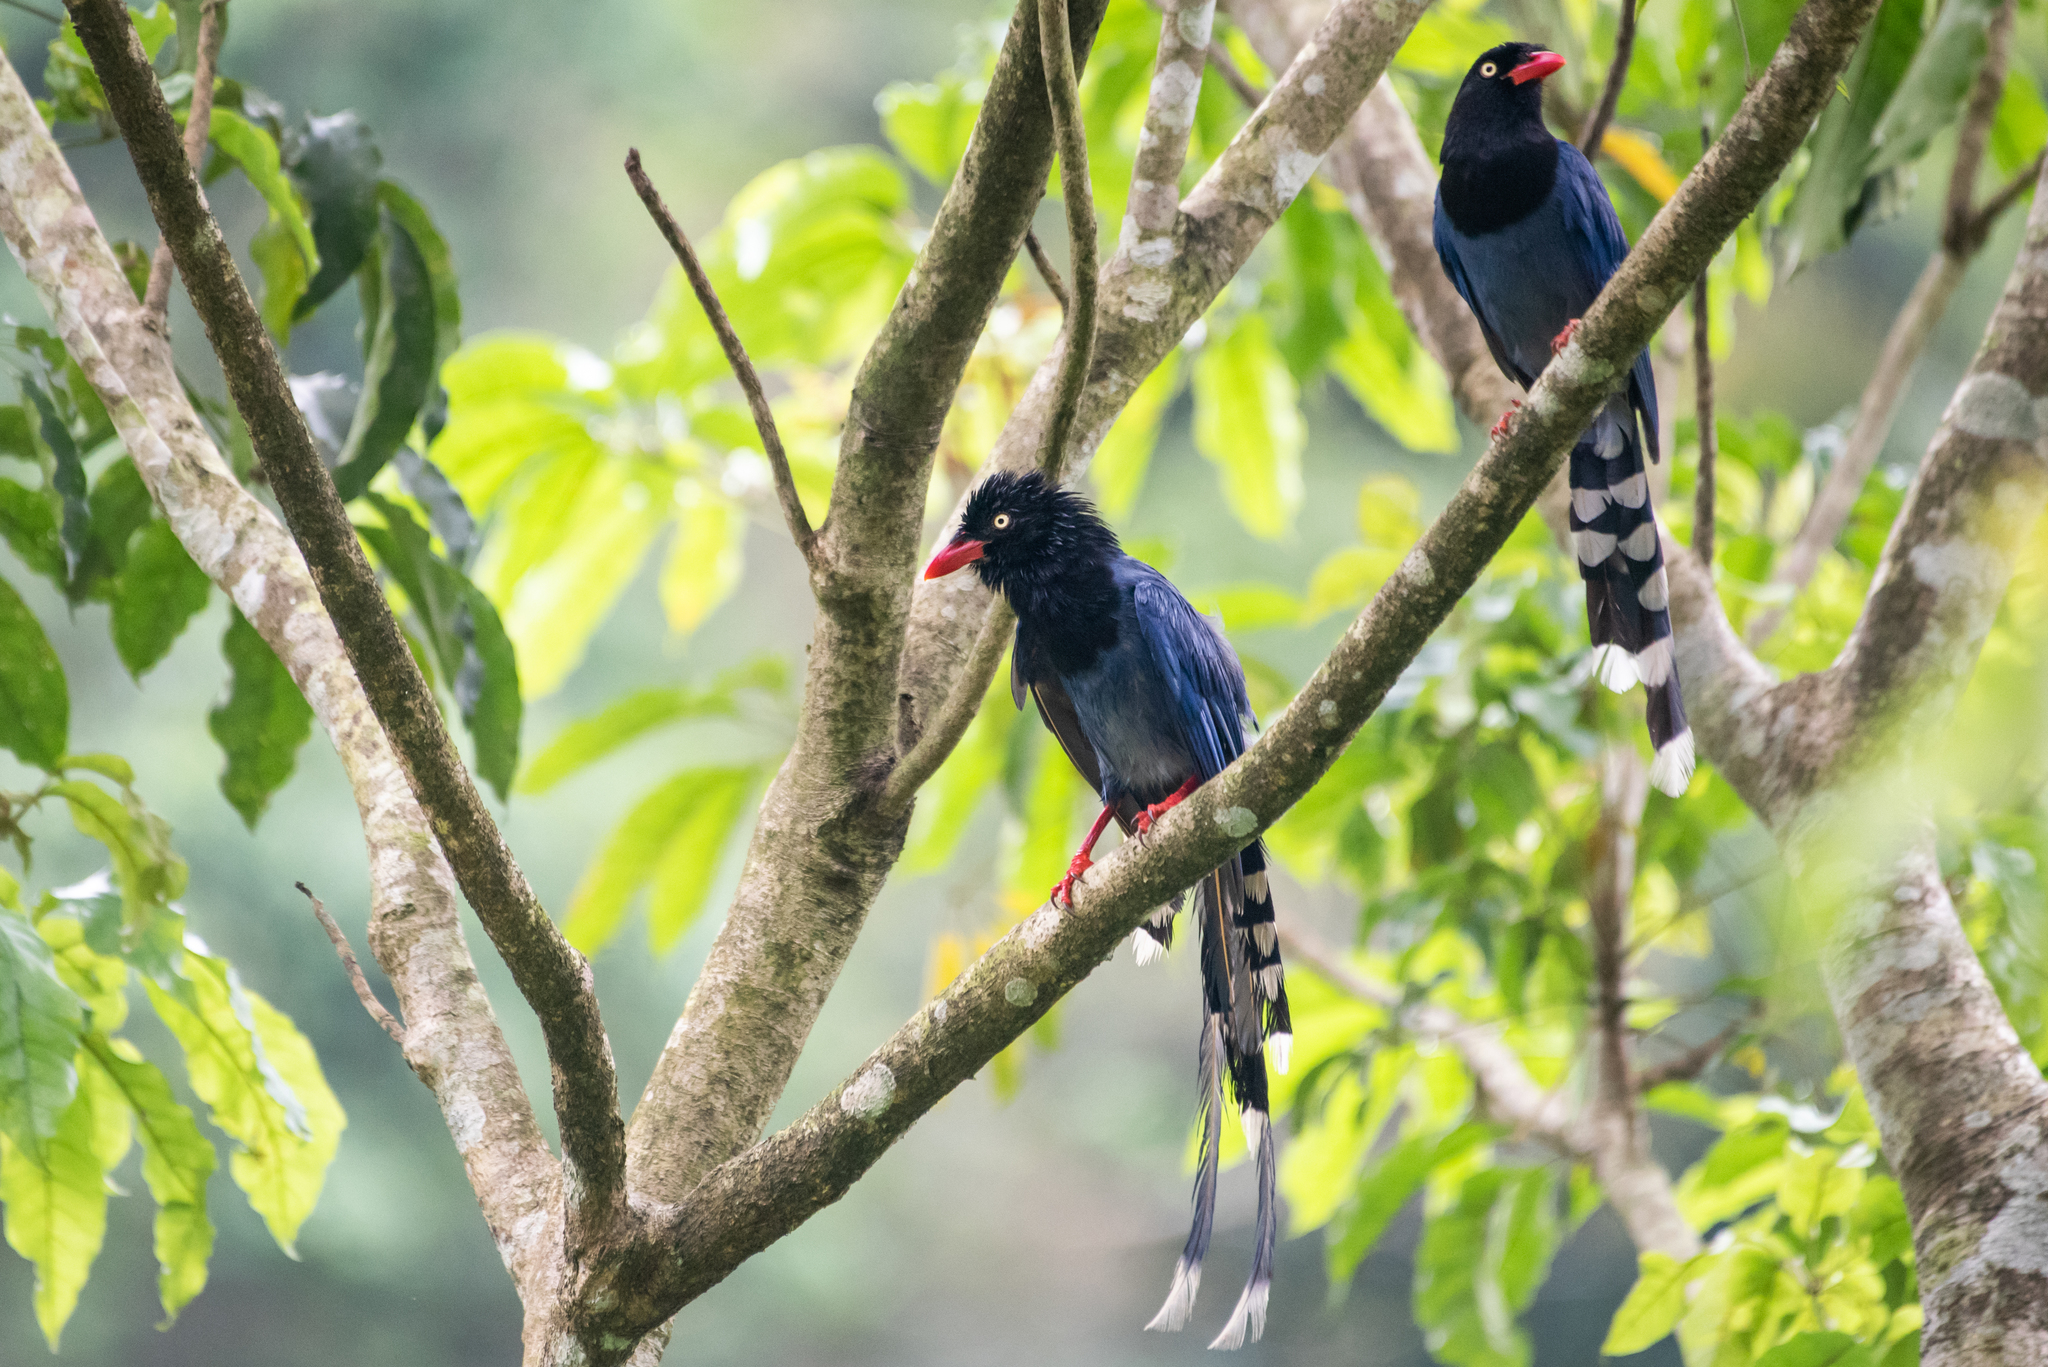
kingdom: Animalia
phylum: Chordata
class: Aves
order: Passeriformes
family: Corvidae
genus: Urocissa
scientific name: Urocissa caerulea
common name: Taiwan blue magpie
